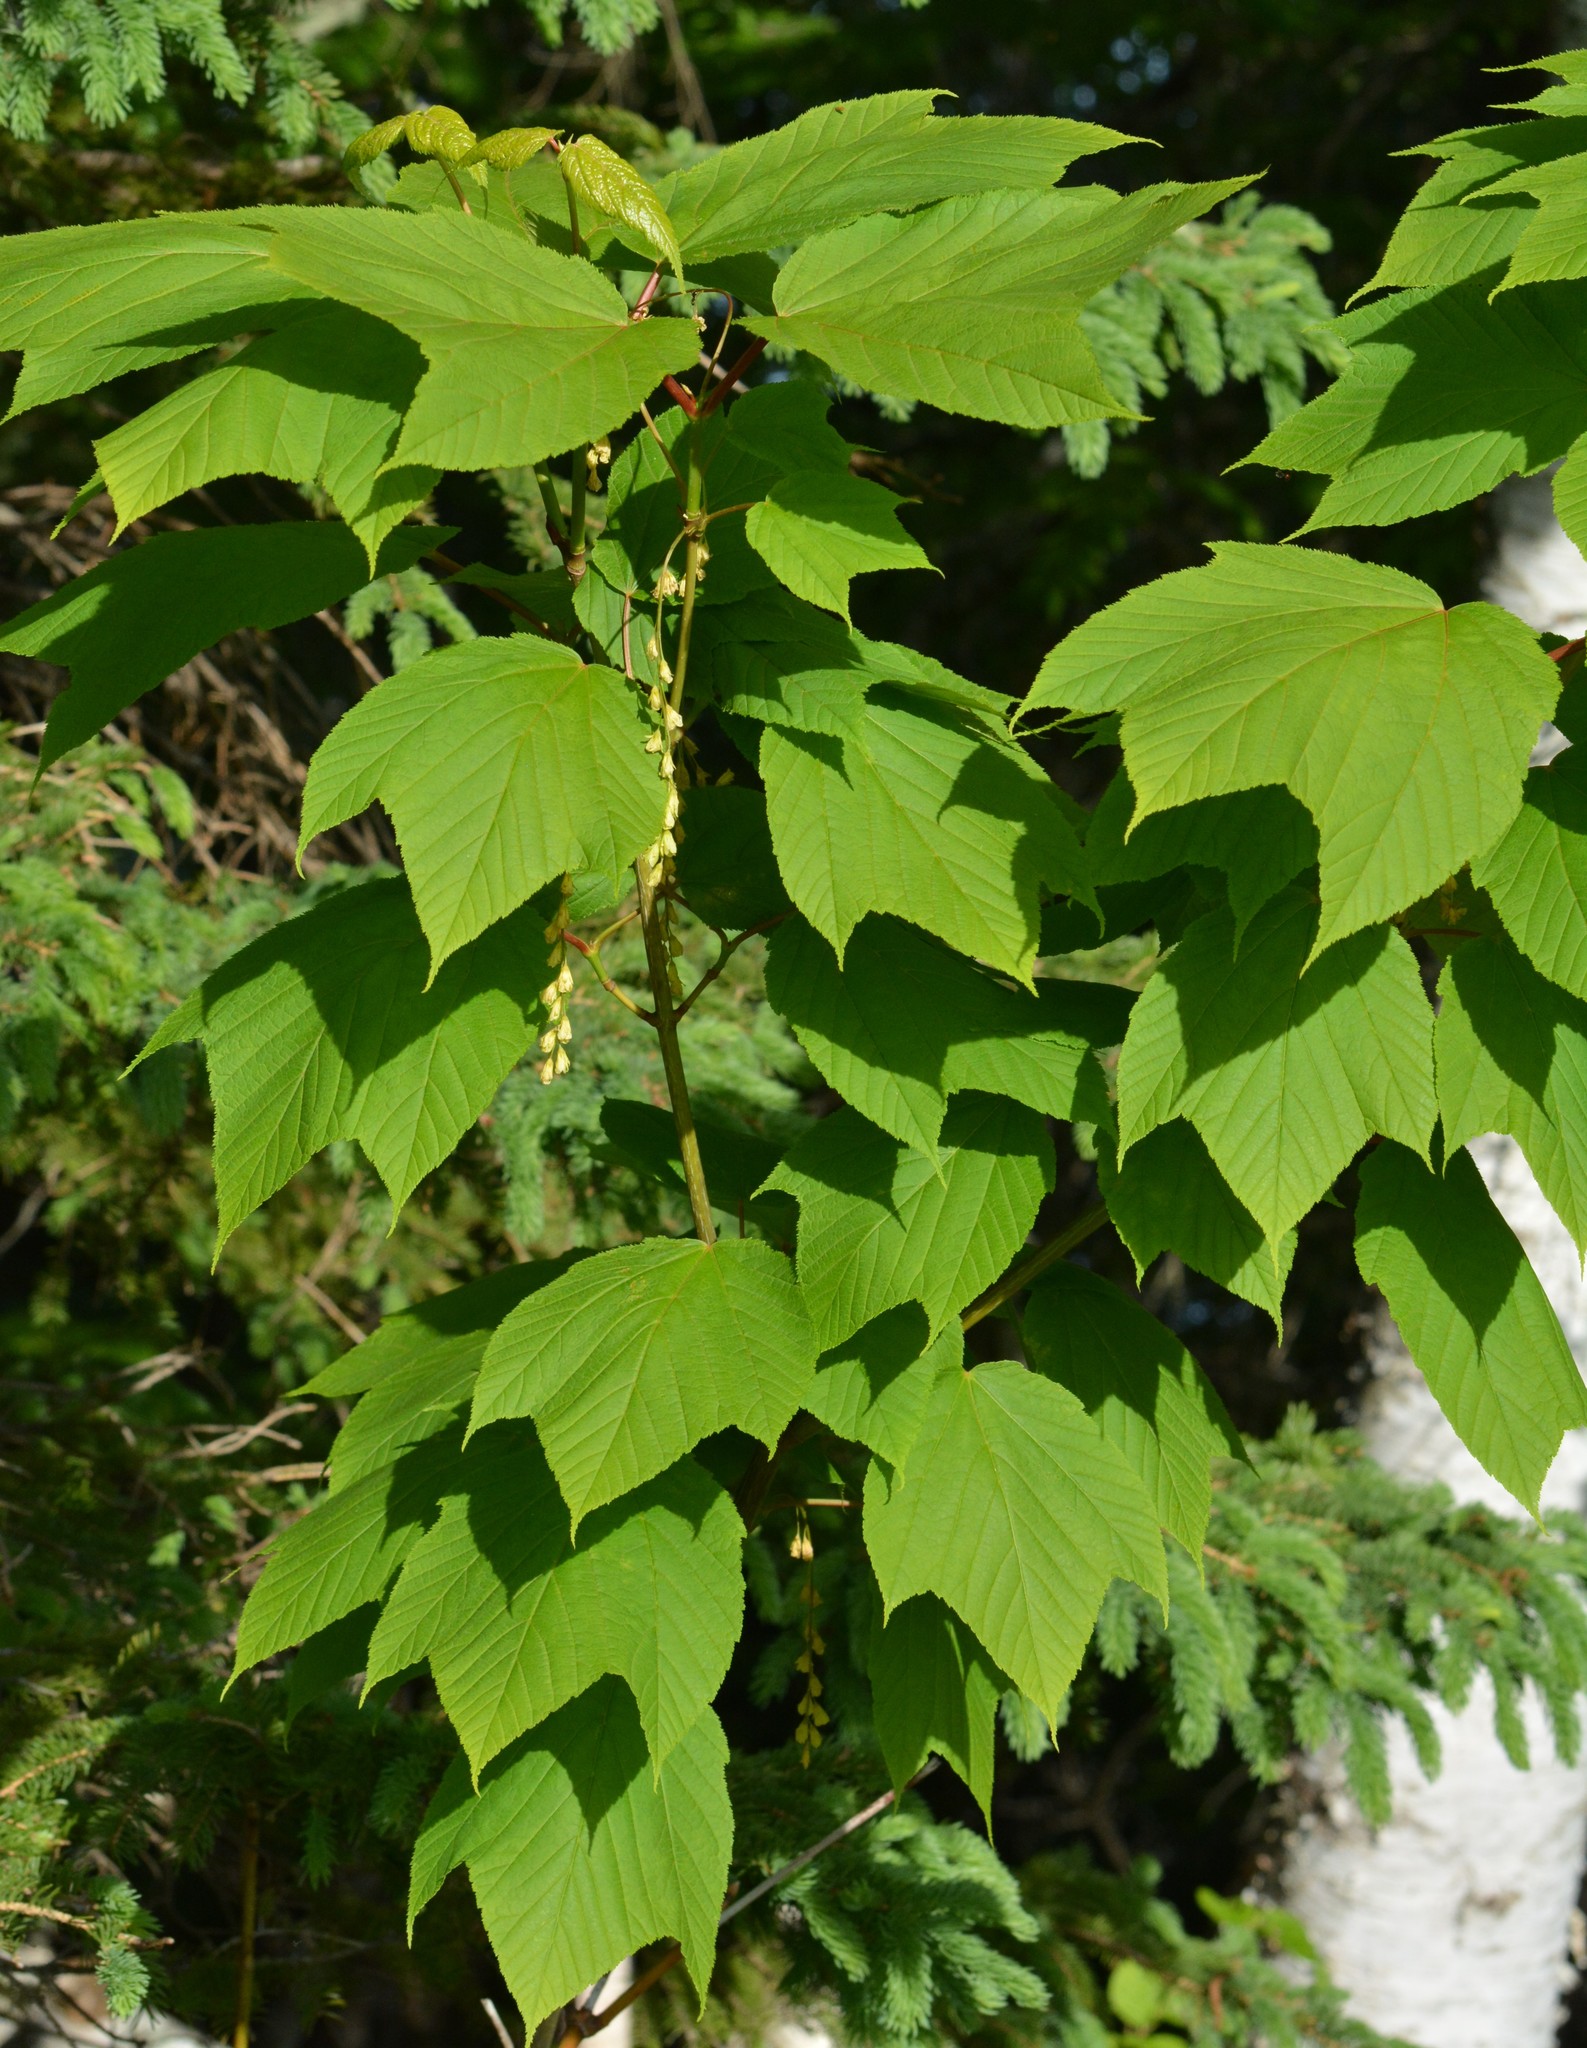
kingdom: Plantae
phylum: Tracheophyta
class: Magnoliopsida
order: Sapindales
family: Sapindaceae
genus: Acer
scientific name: Acer pensylvanicum
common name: Moosewood
